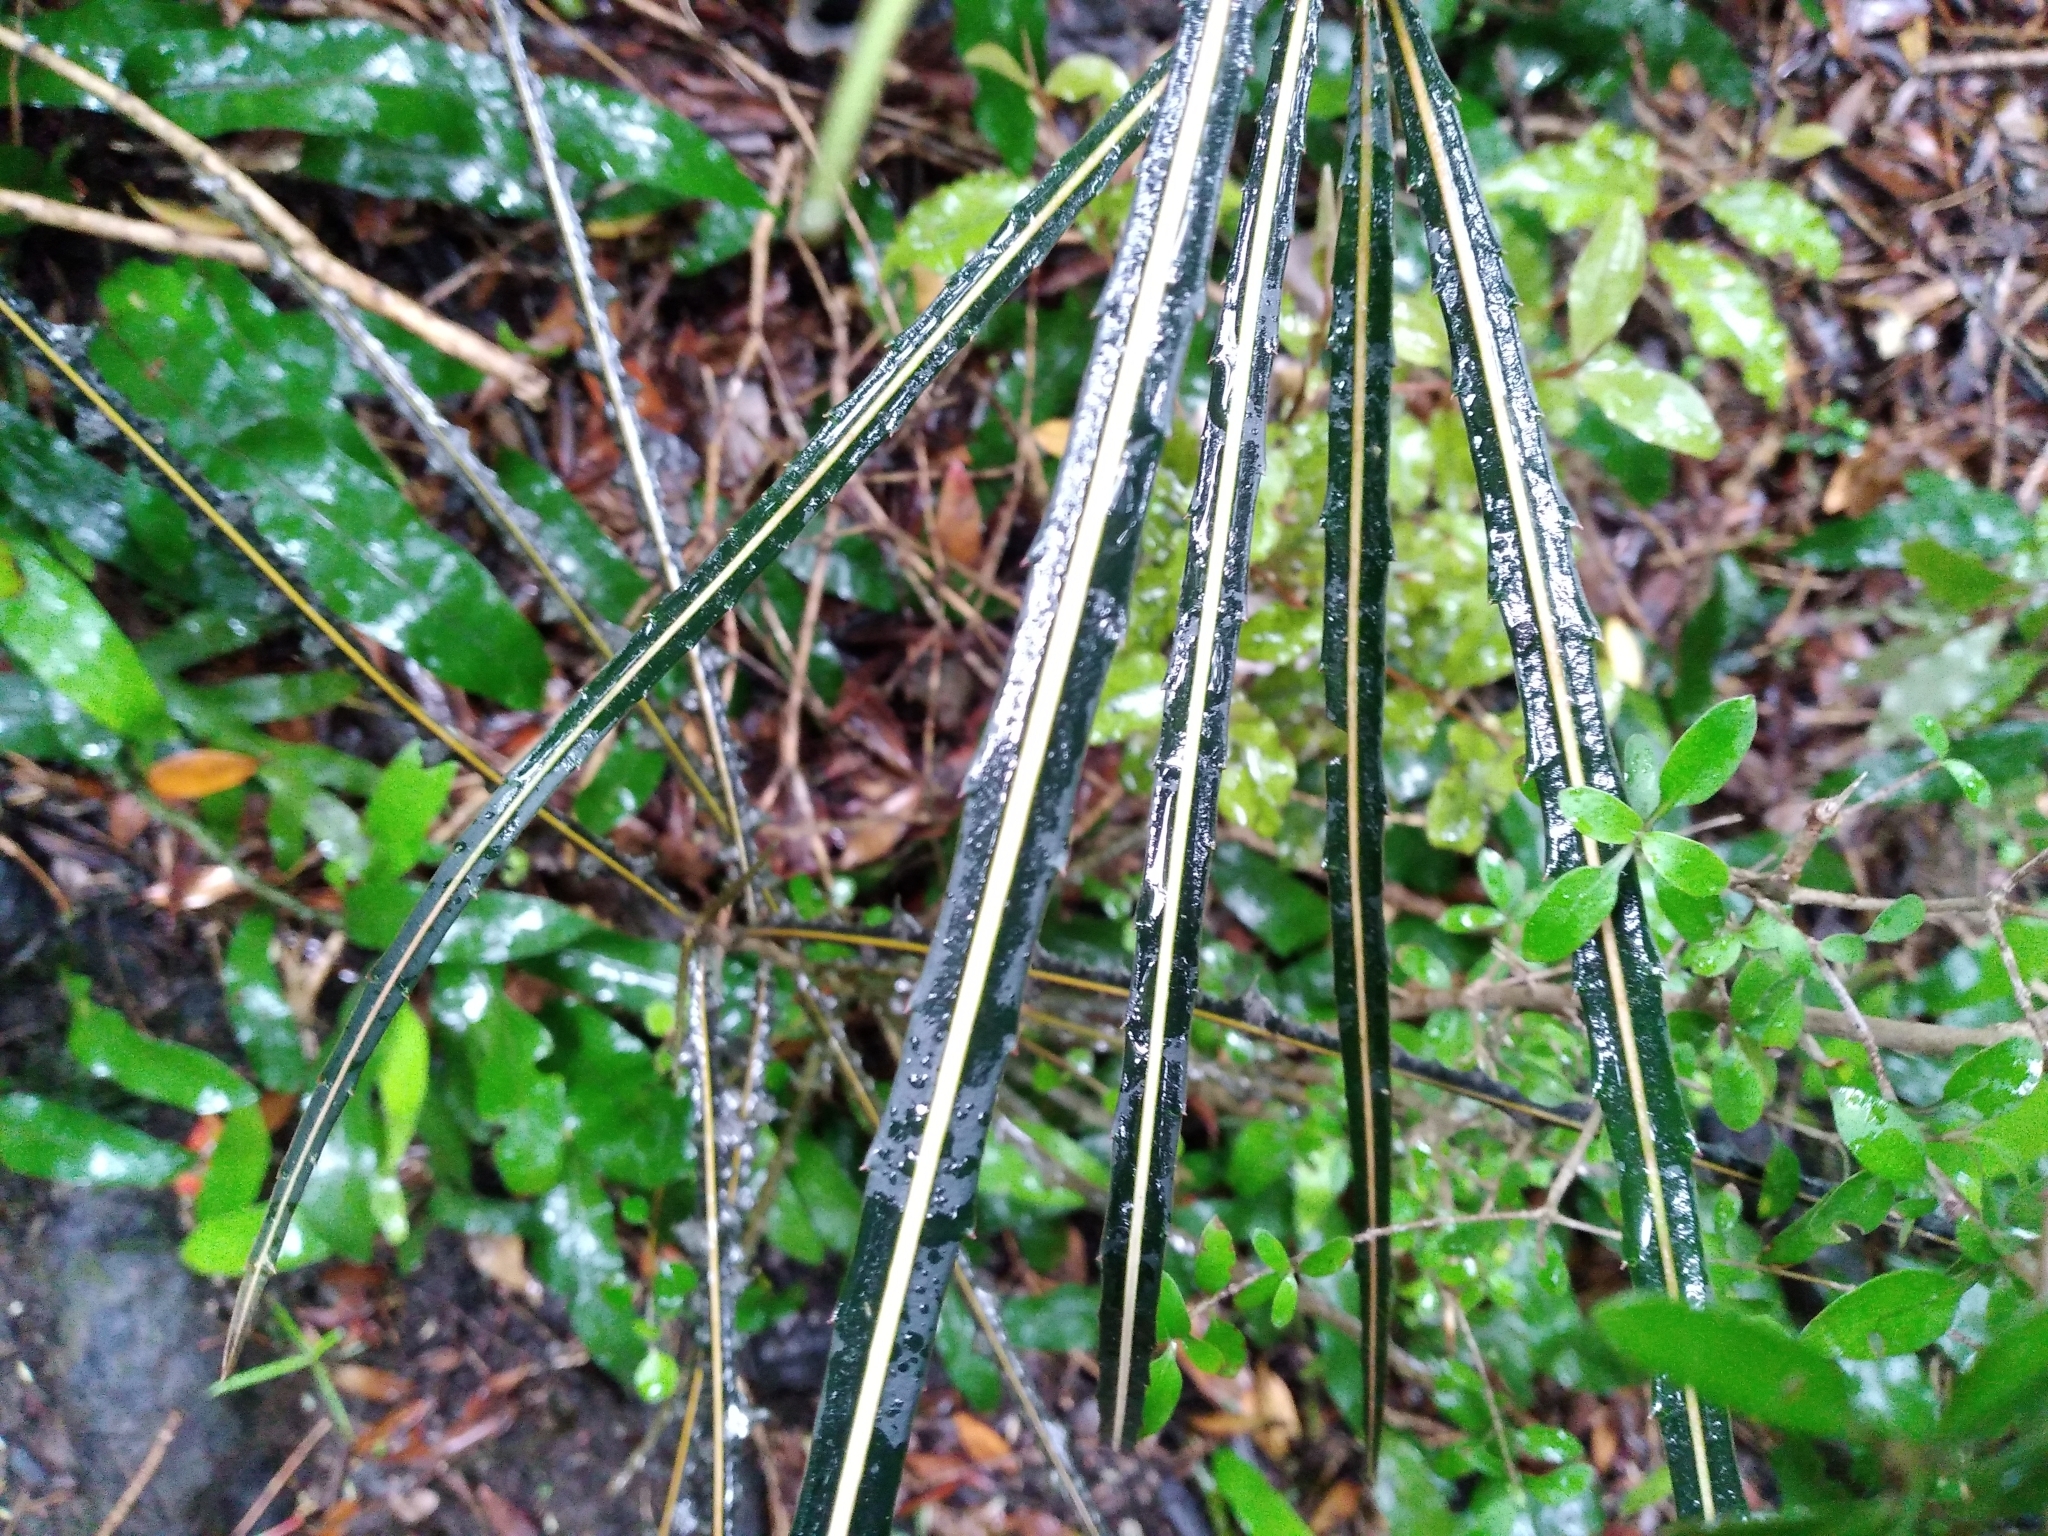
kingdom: Plantae
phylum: Tracheophyta
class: Magnoliopsida
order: Apiales
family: Araliaceae
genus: Pseudopanax
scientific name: Pseudopanax crassifolius
